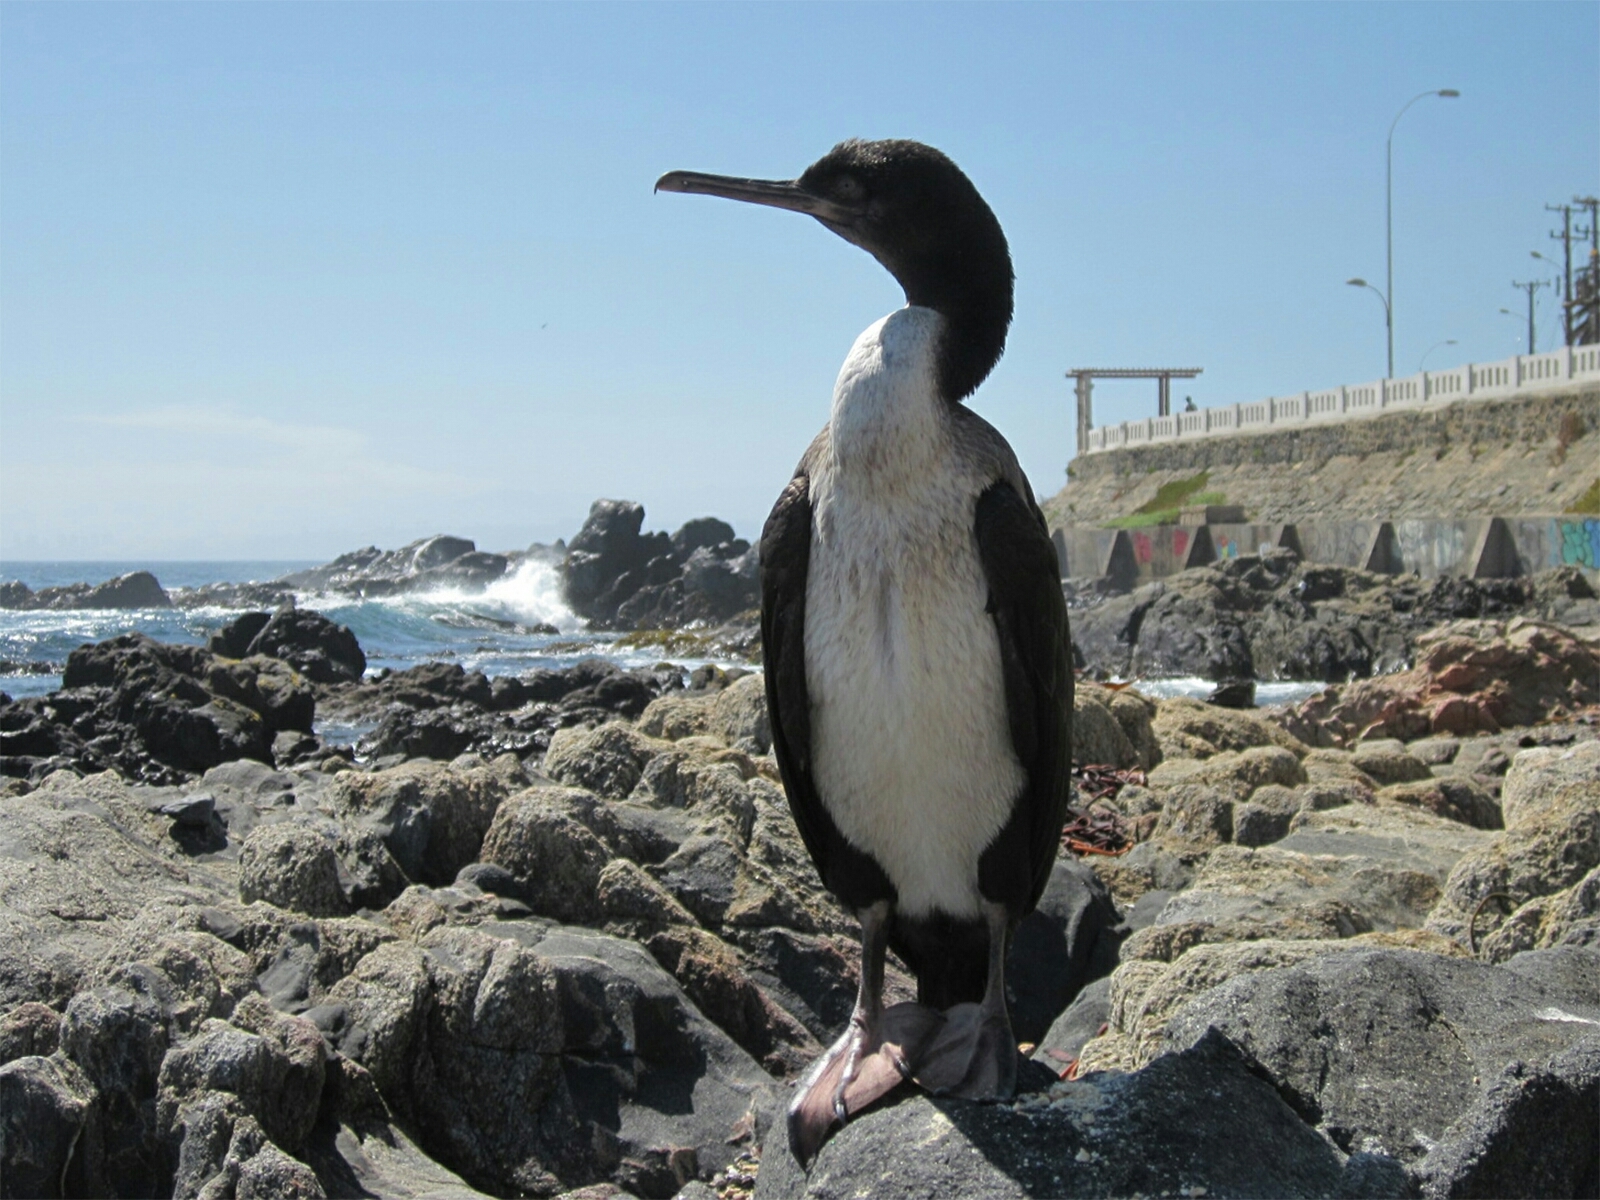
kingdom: Animalia
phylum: Chordata
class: Aves
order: Suliformes
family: Phalacrocoracidae
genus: Leucocarbo
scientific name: Leucocarbo bougainvillii
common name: Guanay cormorant
